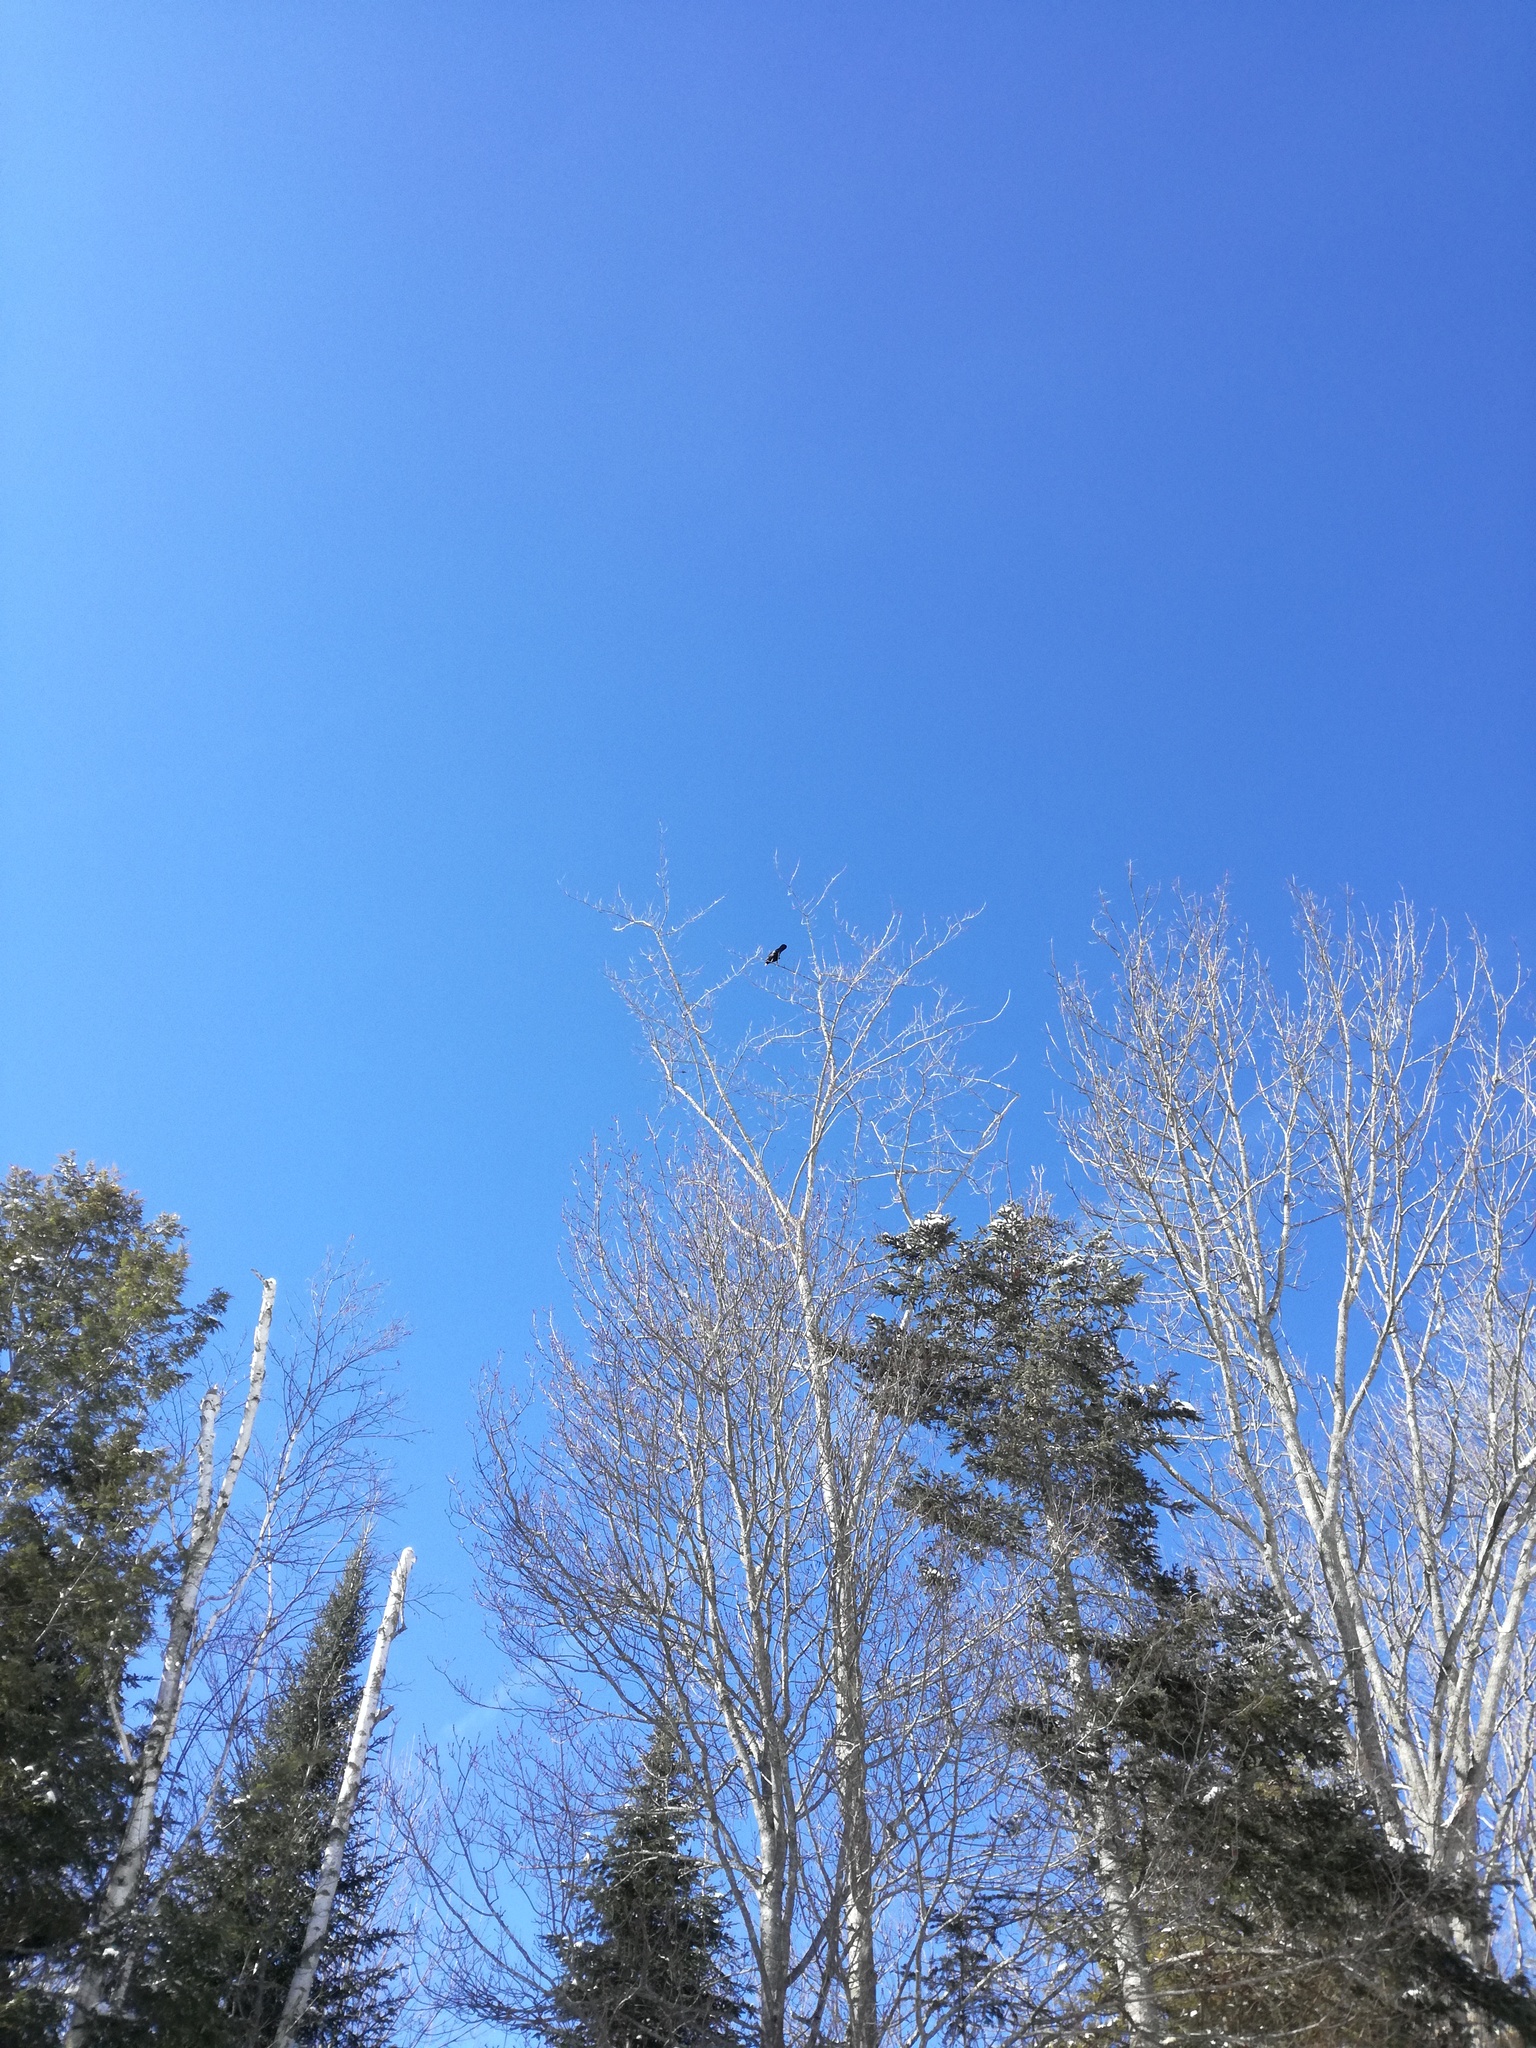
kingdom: Animalia
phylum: Chordata
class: Aves
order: Passeriformes
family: Corvidae
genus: Corvus
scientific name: Corvus brachyrhynchos
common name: American crow
